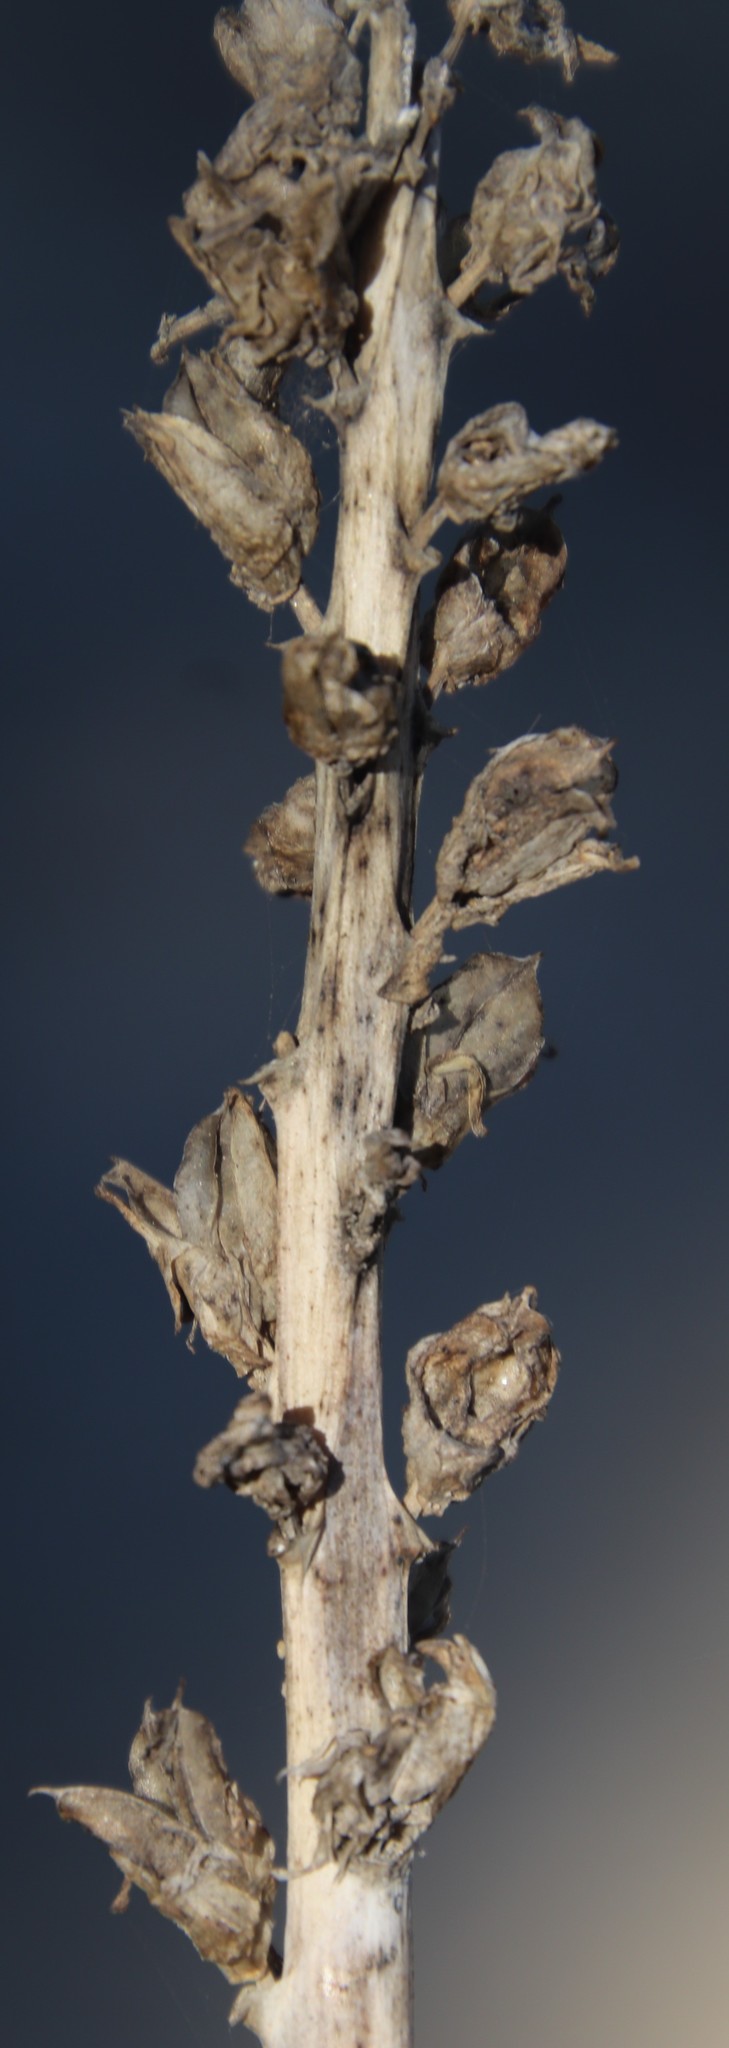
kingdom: Plantae
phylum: Tracheophyta
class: Magnoliopsida
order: Lamiales
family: Orobanchaceae
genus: Orobanche
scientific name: Orobanche minor
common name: Common broomrape
